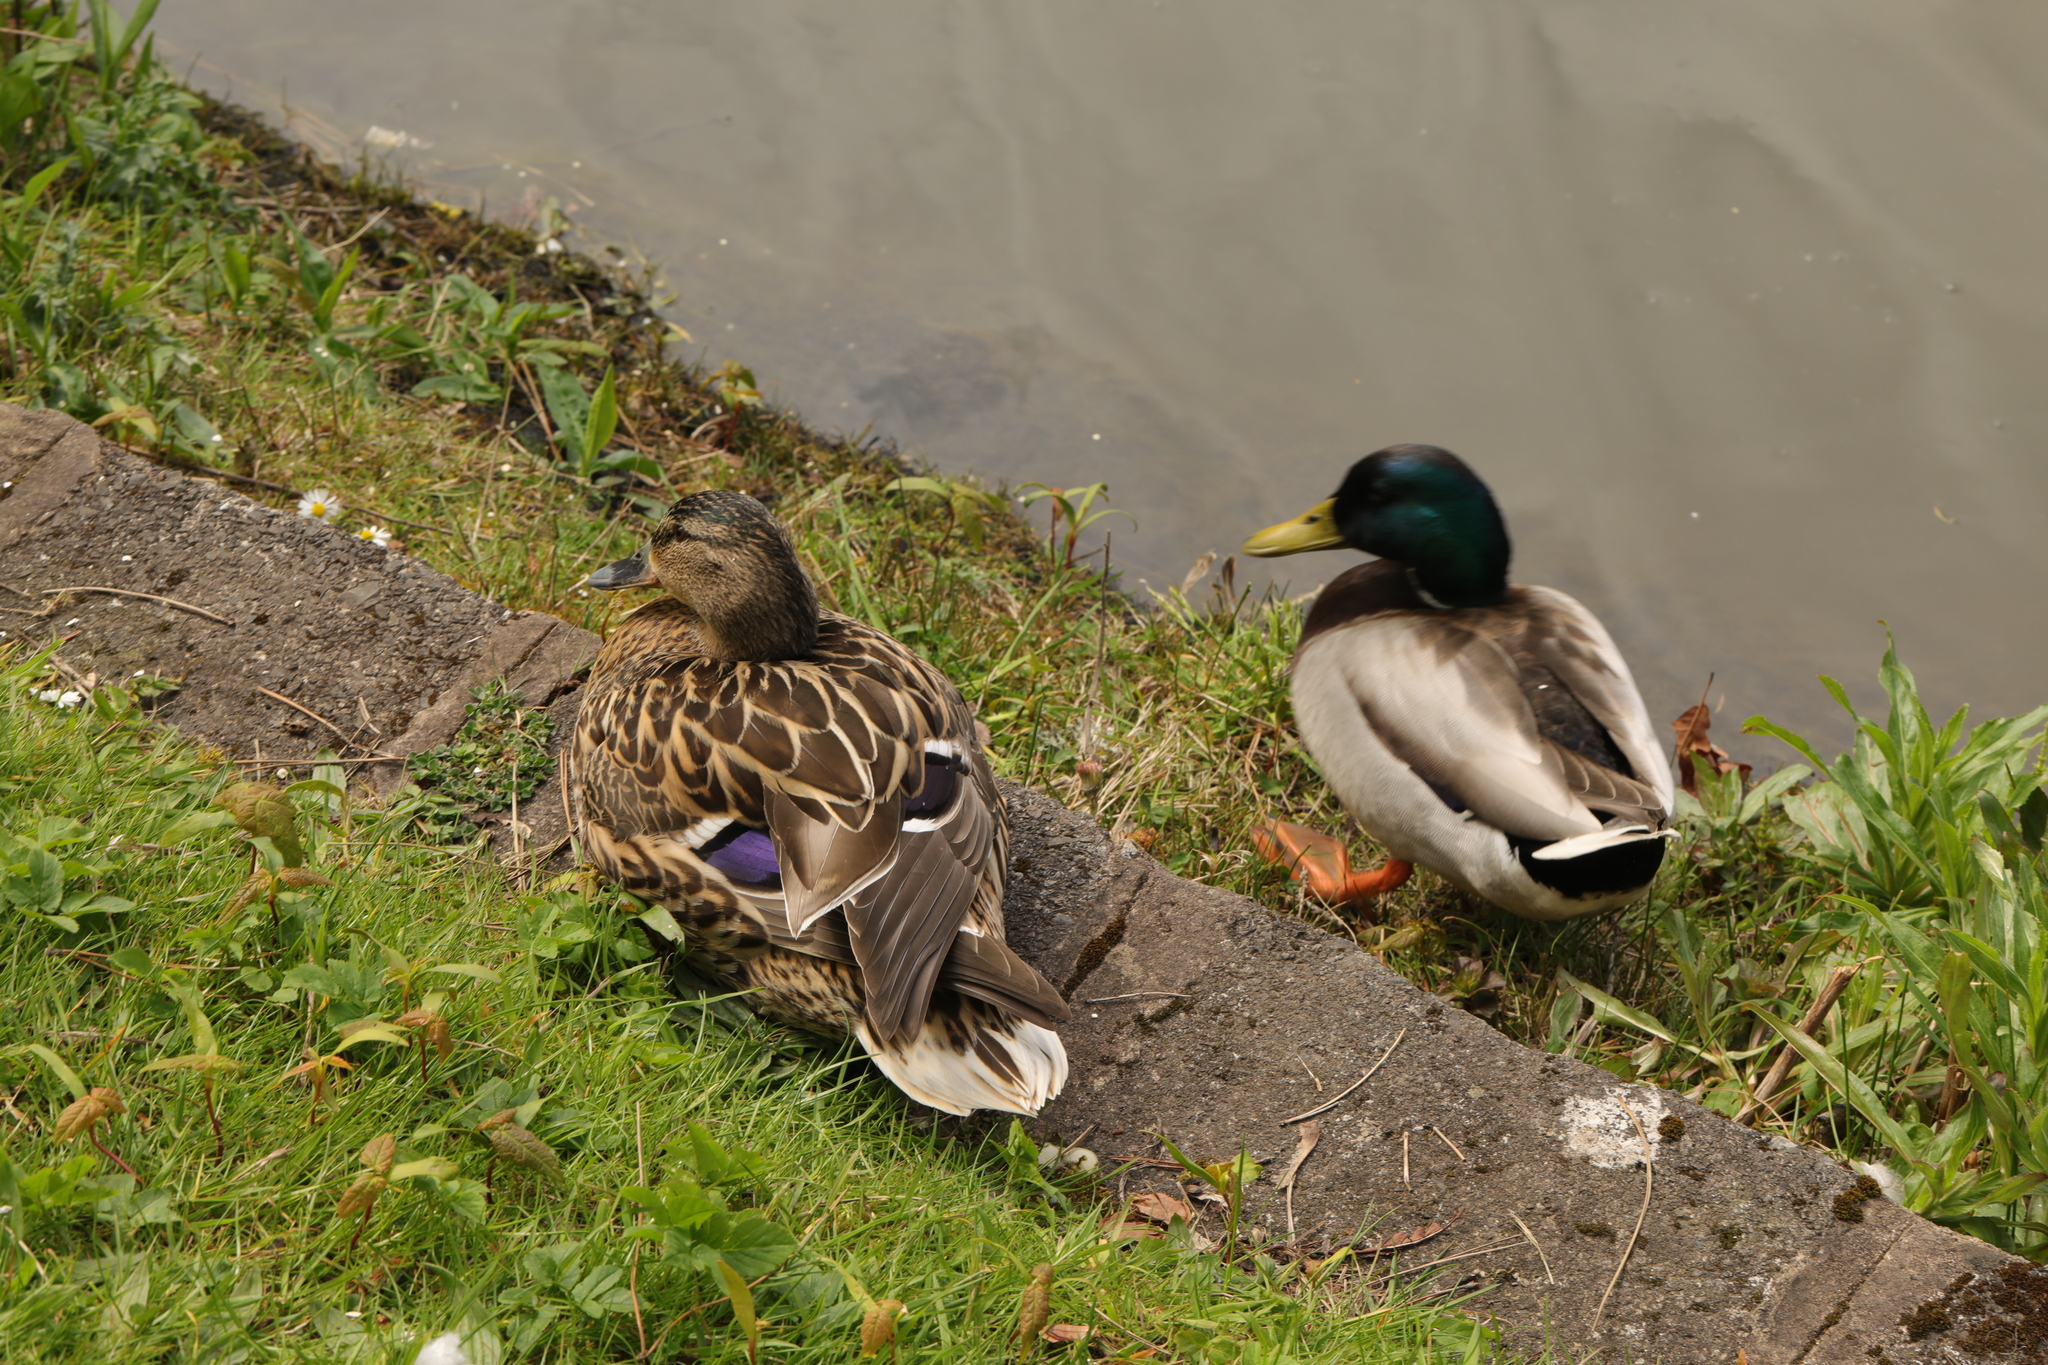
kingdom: Animalia
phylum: Chordata
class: Aves
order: Anseriformes
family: Anatidae
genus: Anas
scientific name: Anas platyrhynchos
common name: Mallard
